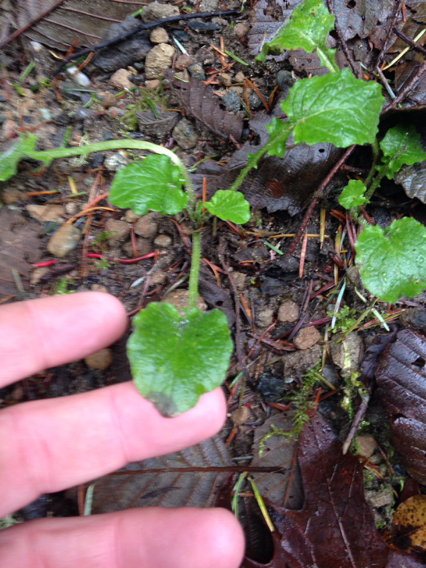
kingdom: Plantae
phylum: Tracheophyta
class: Magnoliopsida
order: Asterales
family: Asteraceae
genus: Lapsana
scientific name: Lapsana communis
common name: Nipplewort
